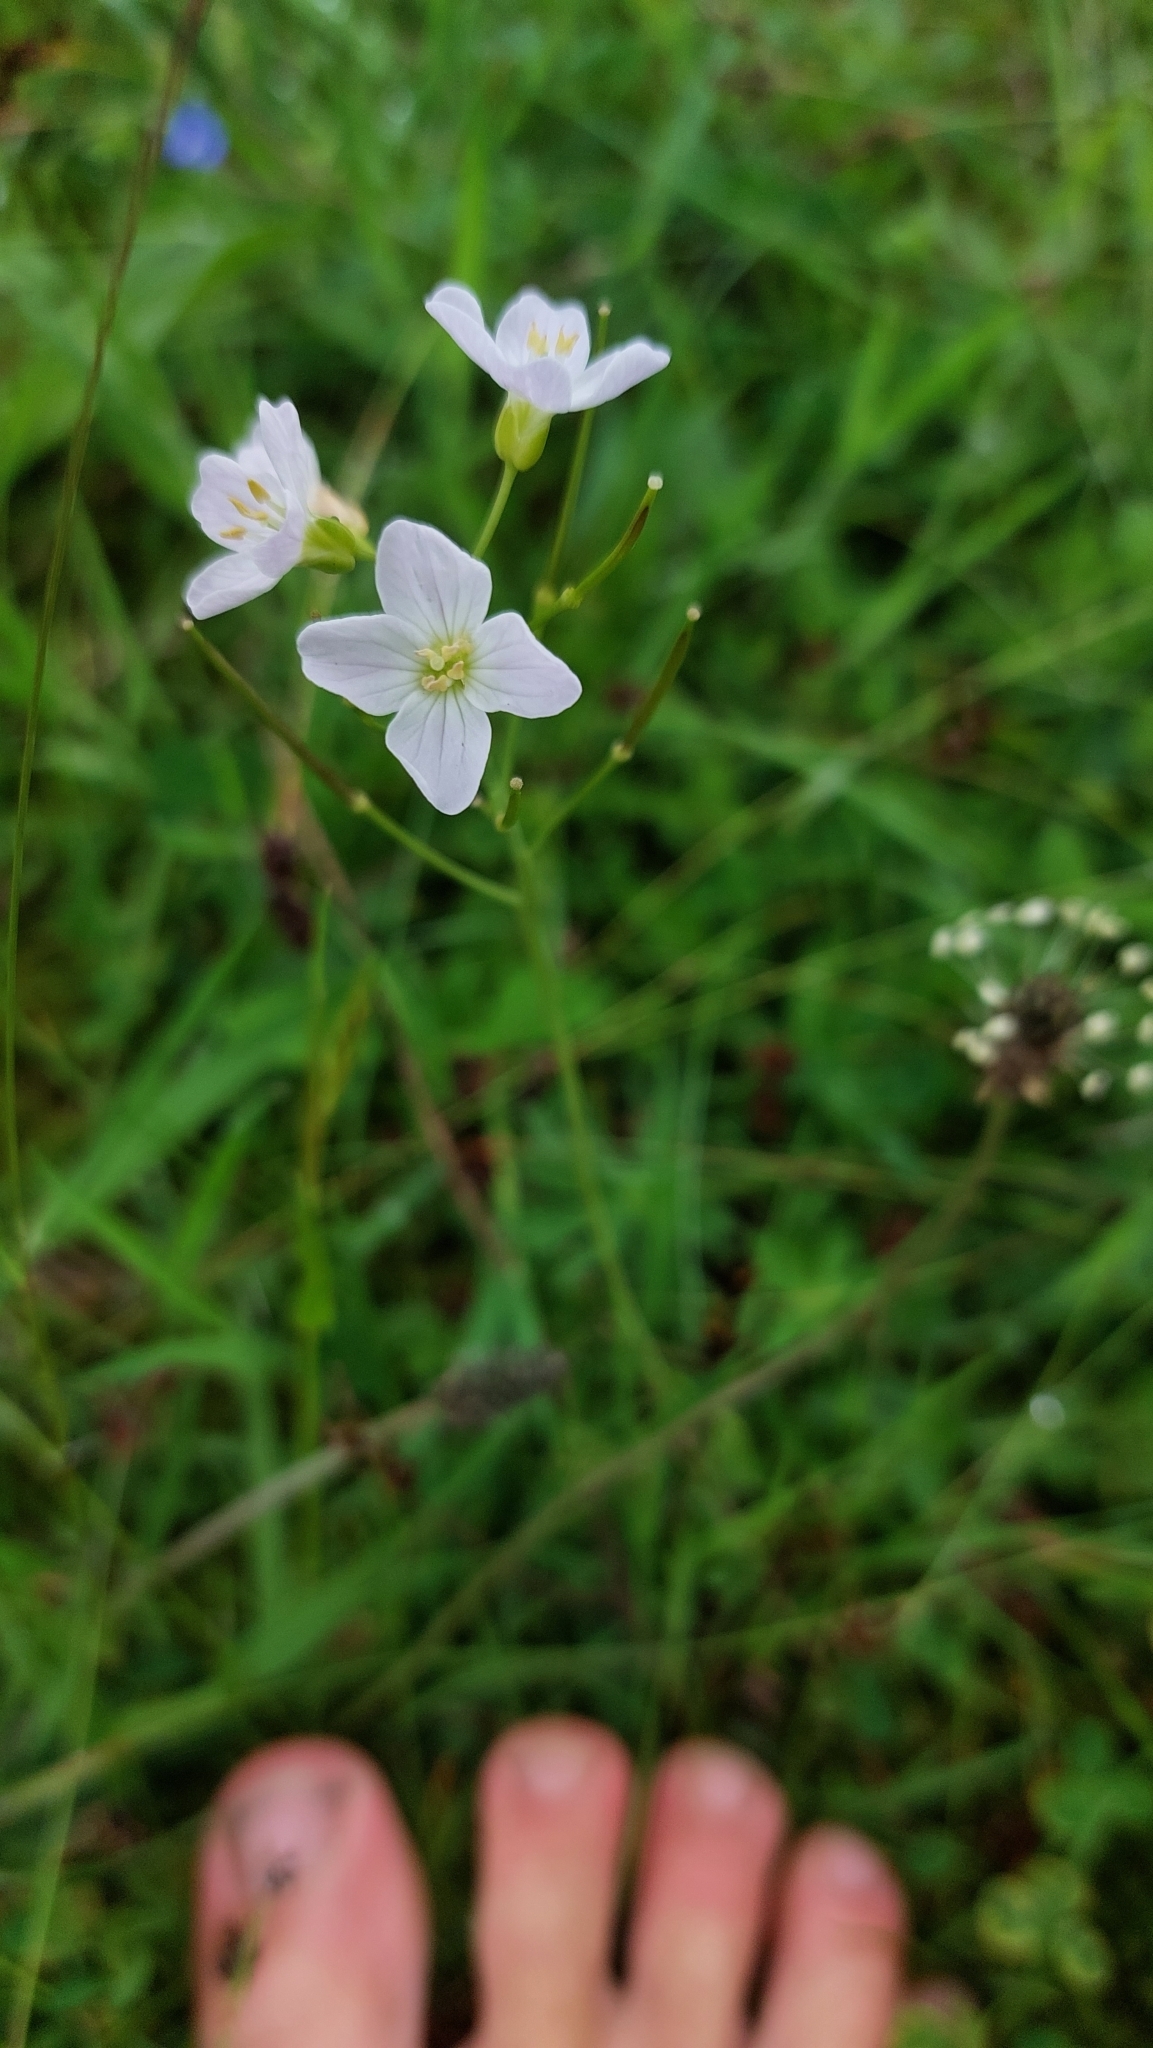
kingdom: Plantae
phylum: Tracheophyta
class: Magnoliopsida
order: Brassicales
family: Brassicaceae
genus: Cardamine
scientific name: Cardamine pratensis
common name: Cuckoo flower
